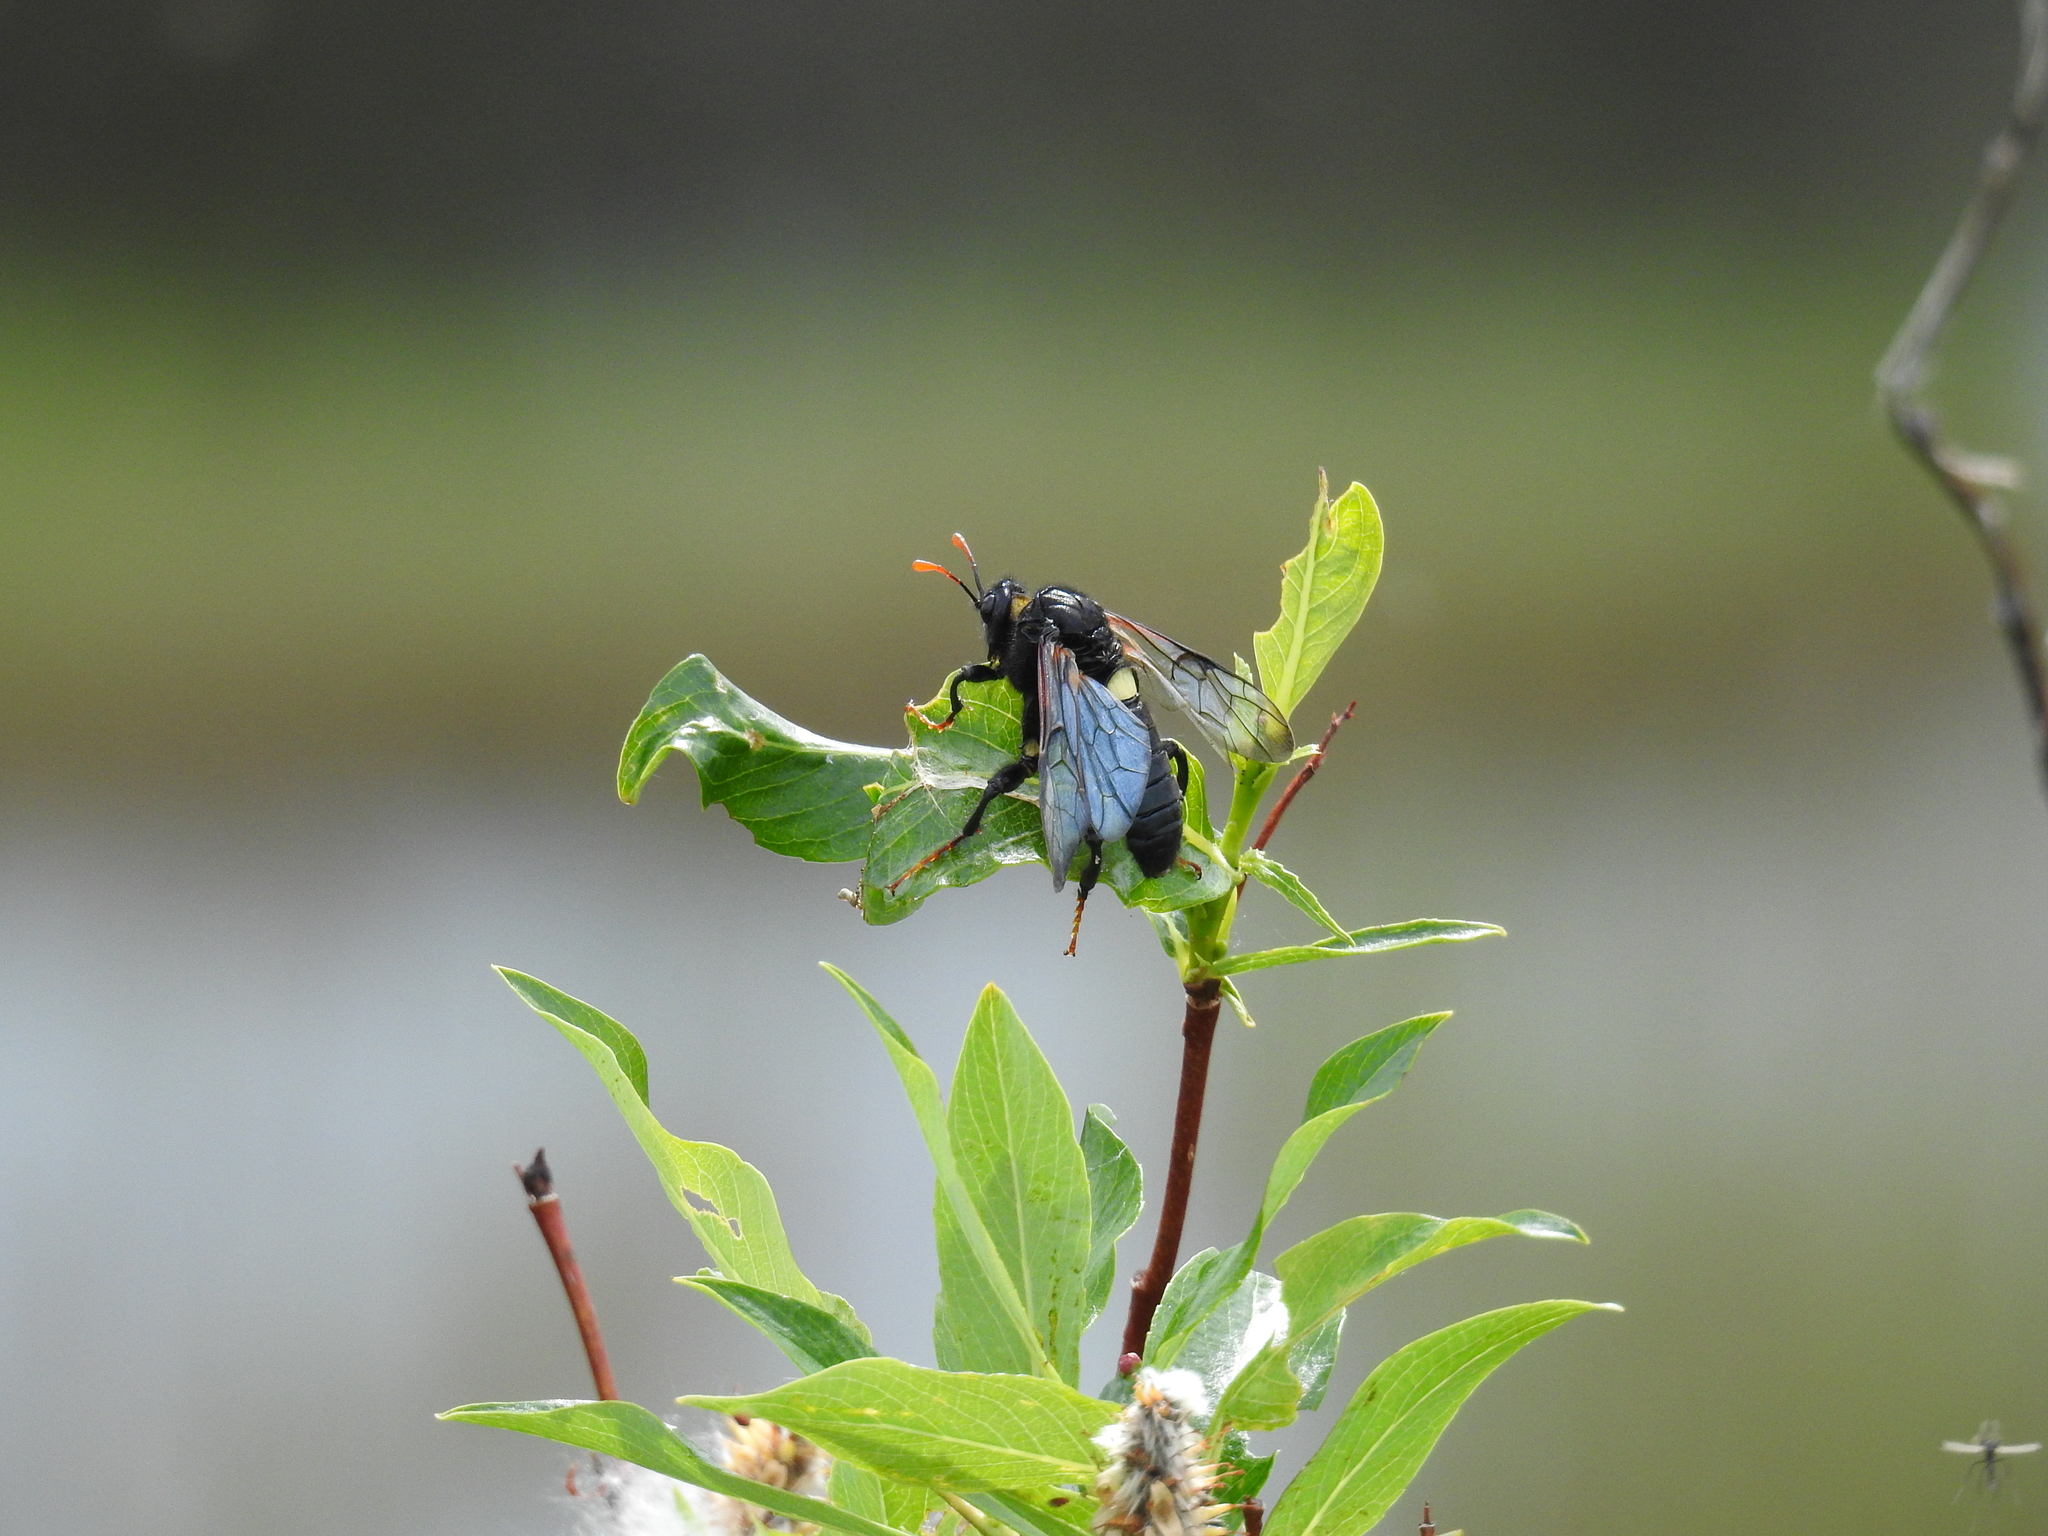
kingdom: Animalia
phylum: Arthropoda
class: Insecta
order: Hymenoptera
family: Cimbicidae
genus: Cimbex
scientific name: Cimbex americana
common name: Elm sawfly
